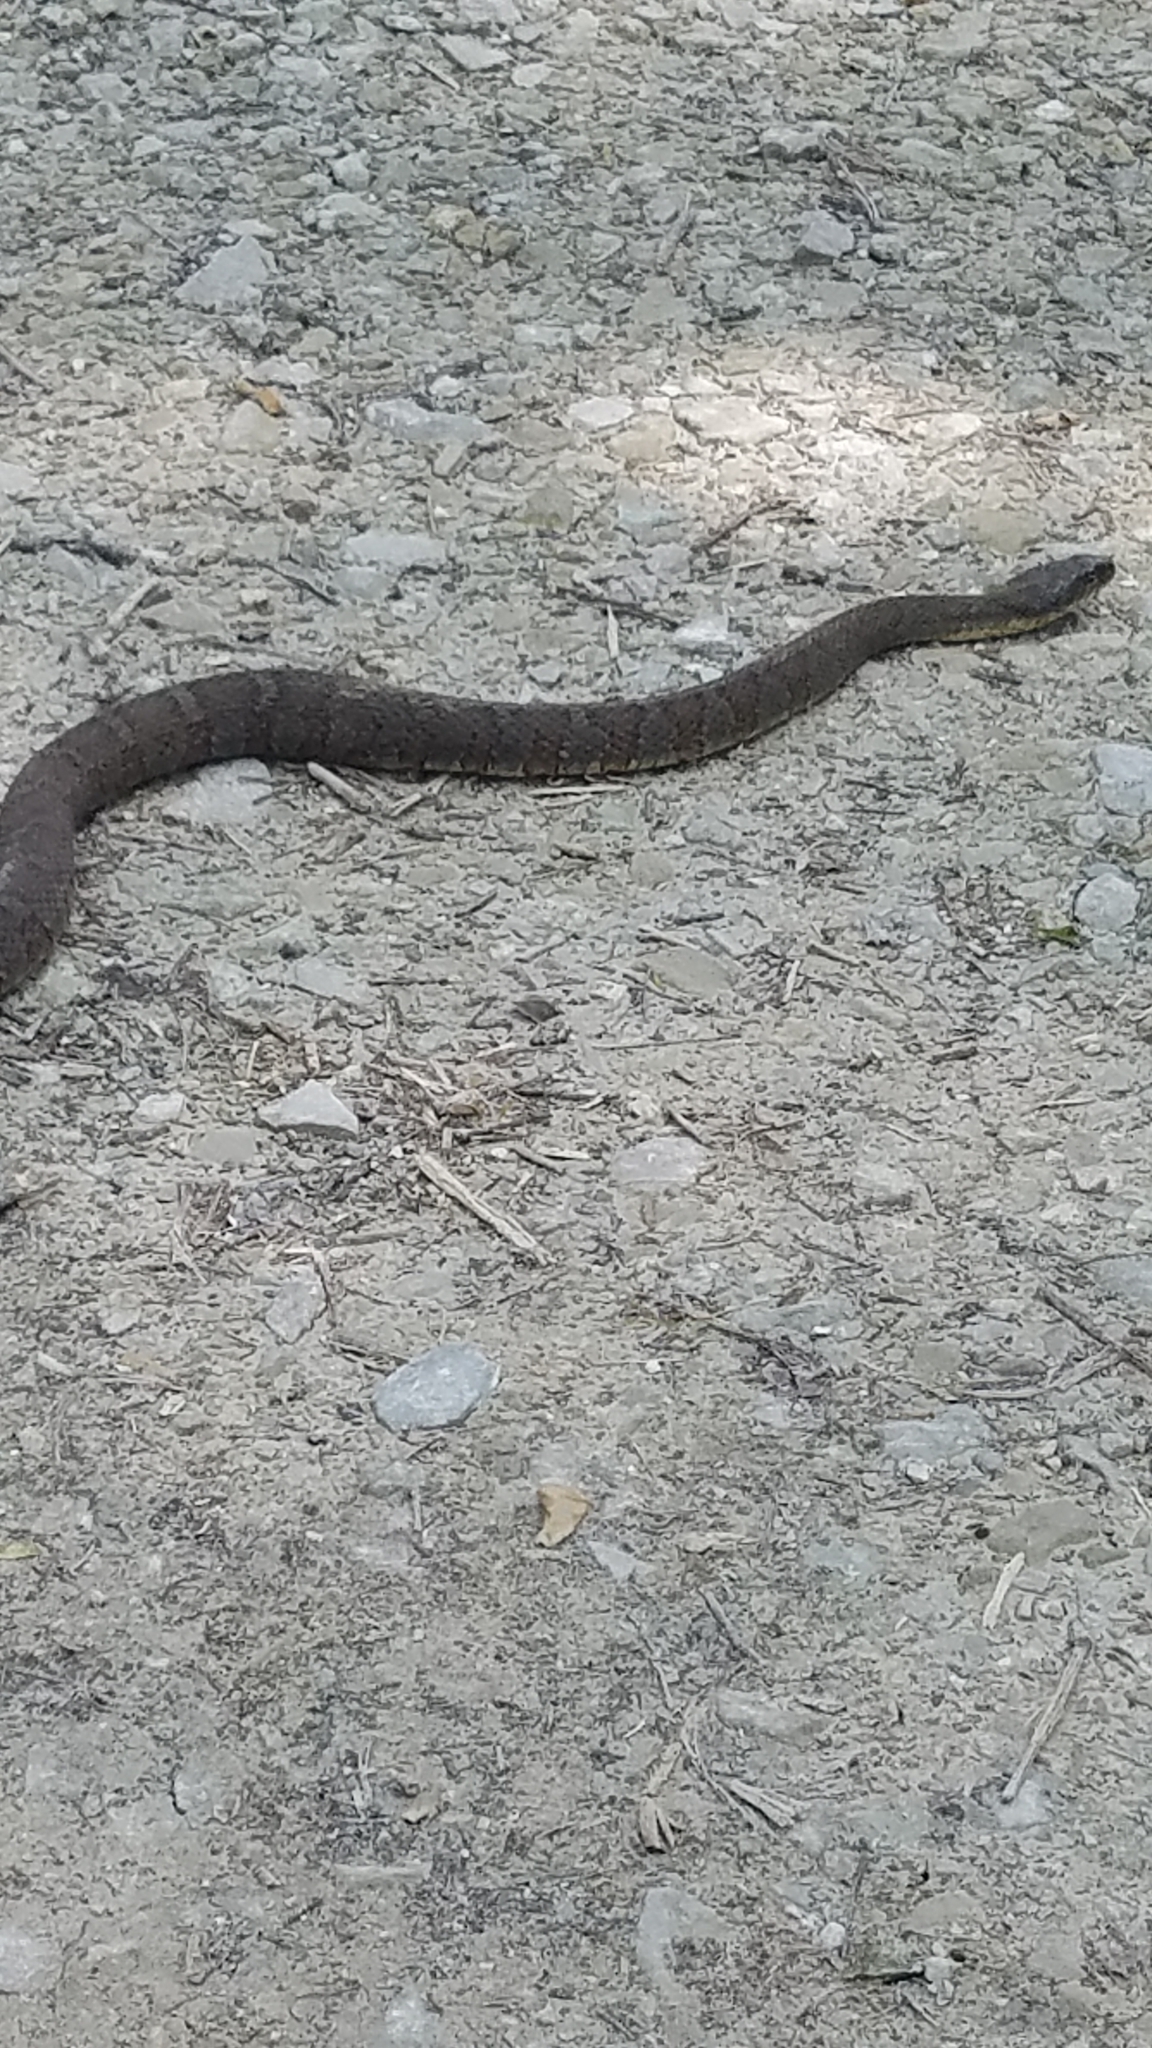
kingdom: Animalia
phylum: Chordata
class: Squamata
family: Colubridae
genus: Nerodia
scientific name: Nerodia sipedon
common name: Northern water snake
